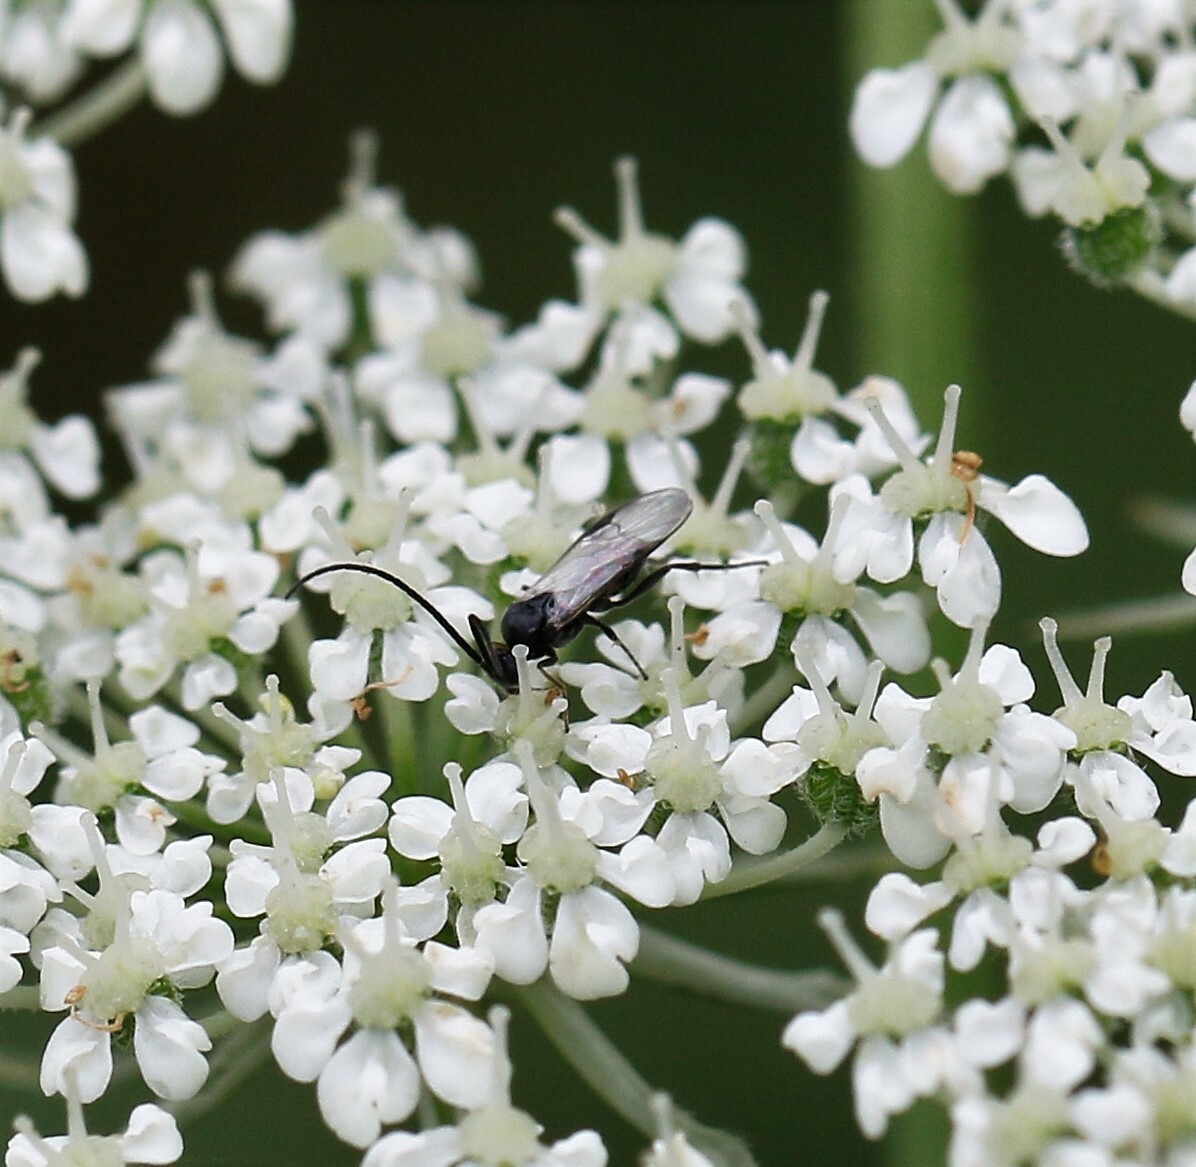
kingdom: Animalia
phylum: Arthropoda
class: Insecta
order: Coleoptera
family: Coccinellidae
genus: Propylaea
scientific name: Propylaea quatuordecimpunctata
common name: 14-spotted ladybird beetle
